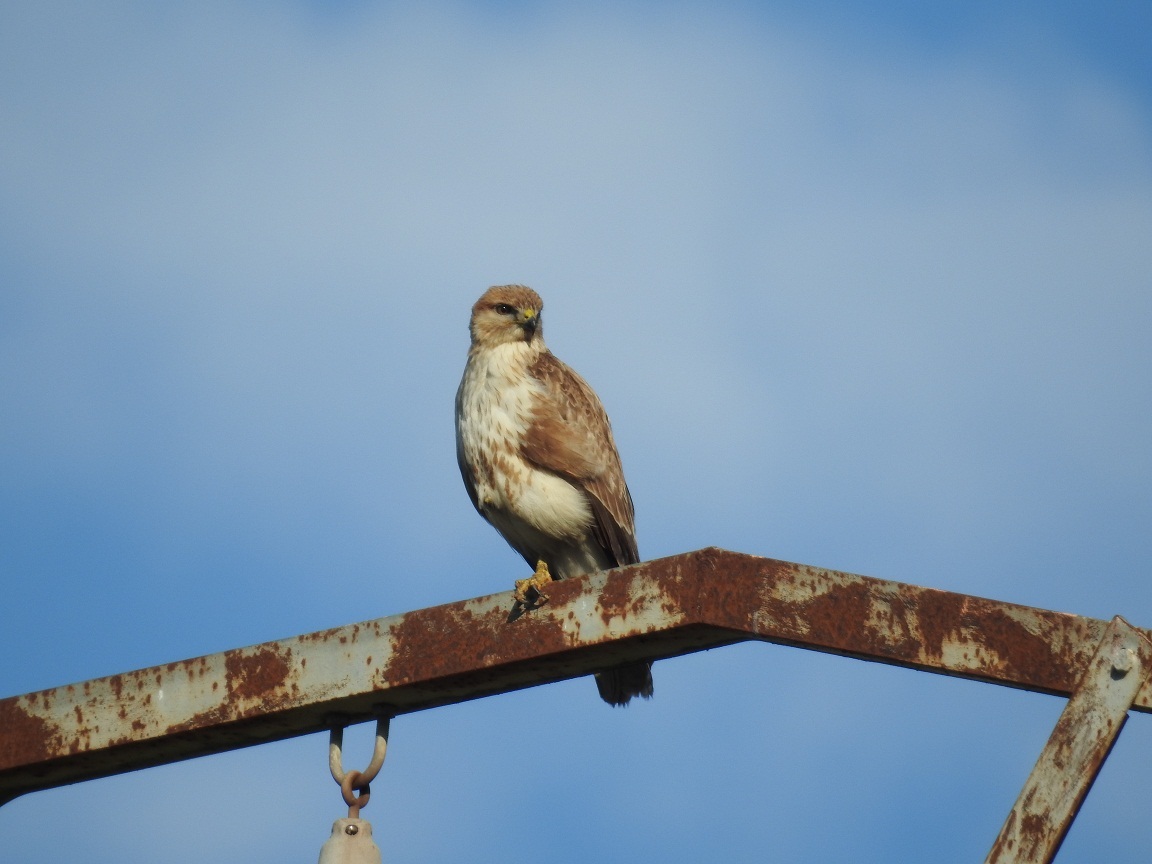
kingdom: Animalia
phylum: Chordata
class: Aves
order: Accipitriformes
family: Accipitridae
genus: Buteo
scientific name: Buteo rufinus
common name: Long-legged buzzard
